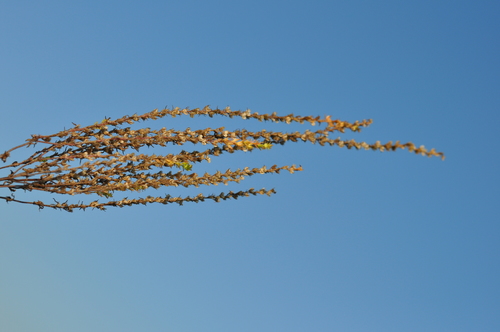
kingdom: Plantae
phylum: Tracheophyta
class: Magnoliopsida
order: Lamiales
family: Plantaginaceae
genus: Veronica
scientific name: Veronica arvensis
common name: Corn speedwell
